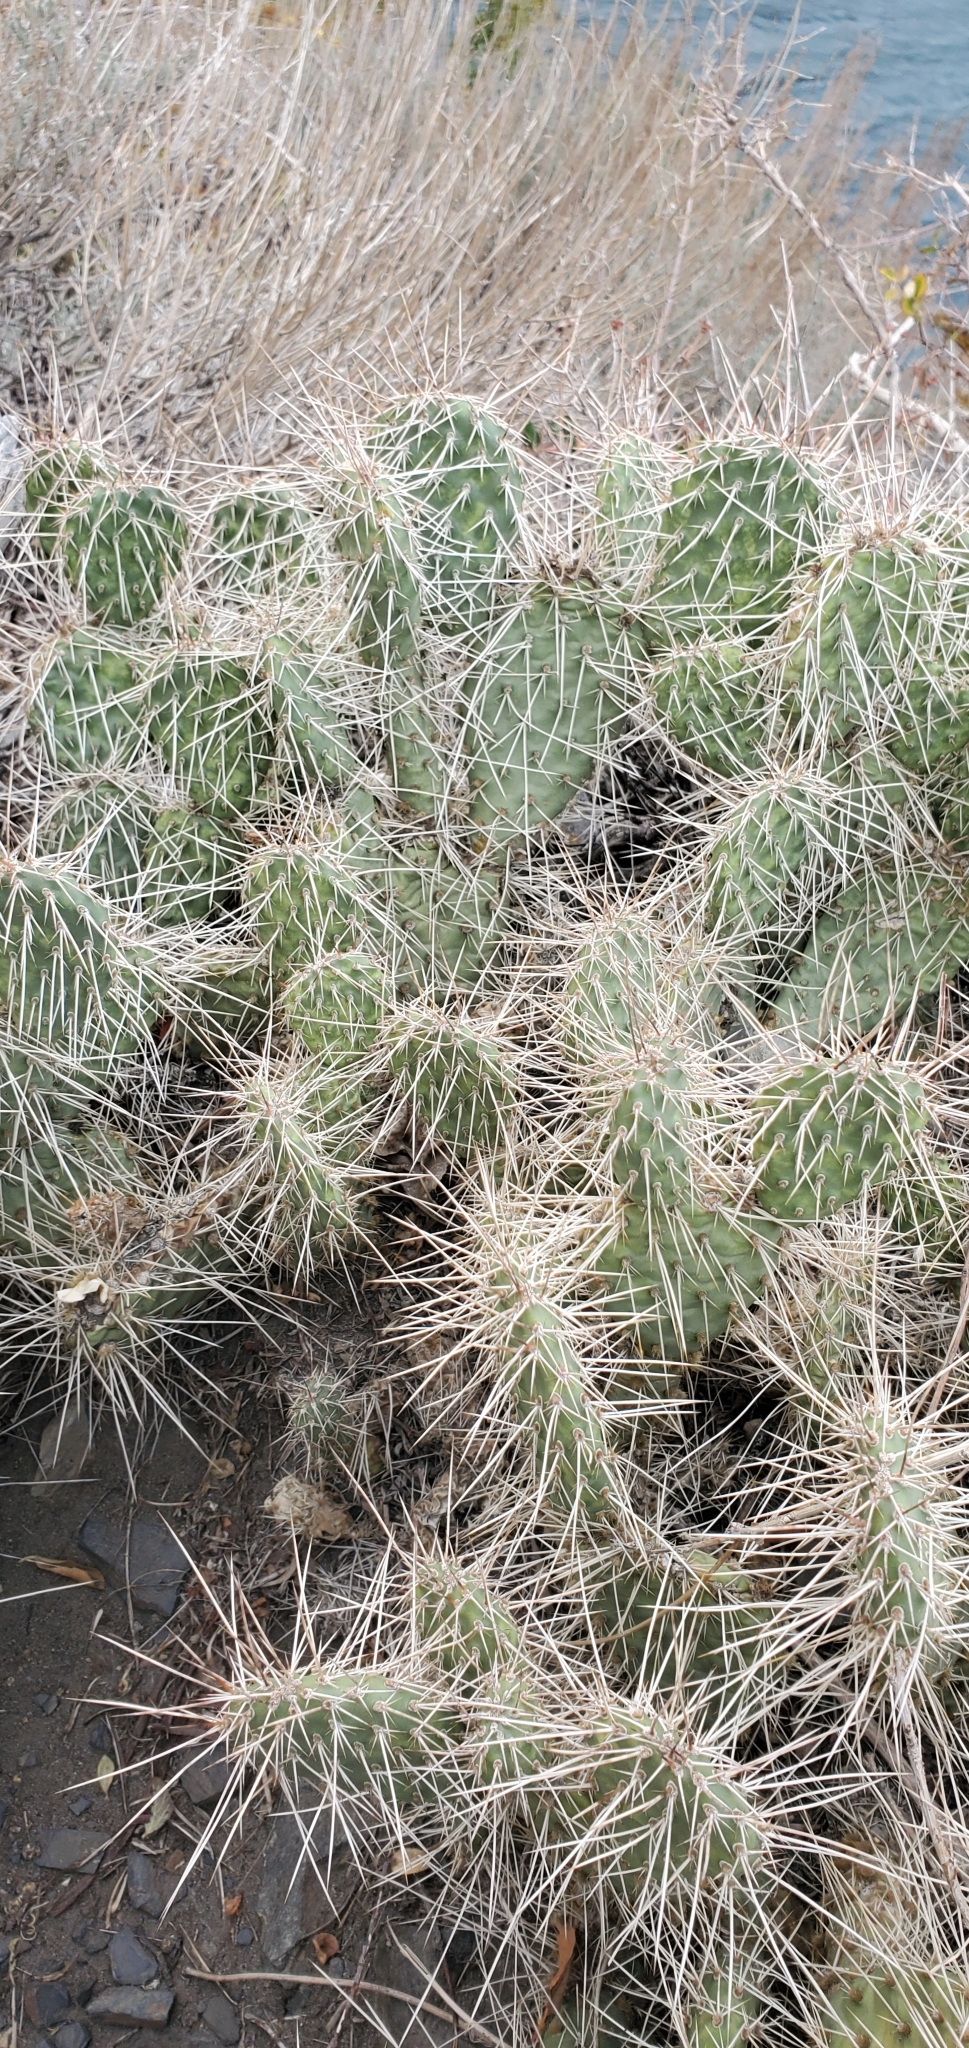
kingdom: Plantae
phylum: Tracheophyta
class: Magnoliopsida
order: Caryophyllales
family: Cactaceae
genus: Opuntia
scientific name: Opuntia polyacantha
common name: Plains prickly-pear
